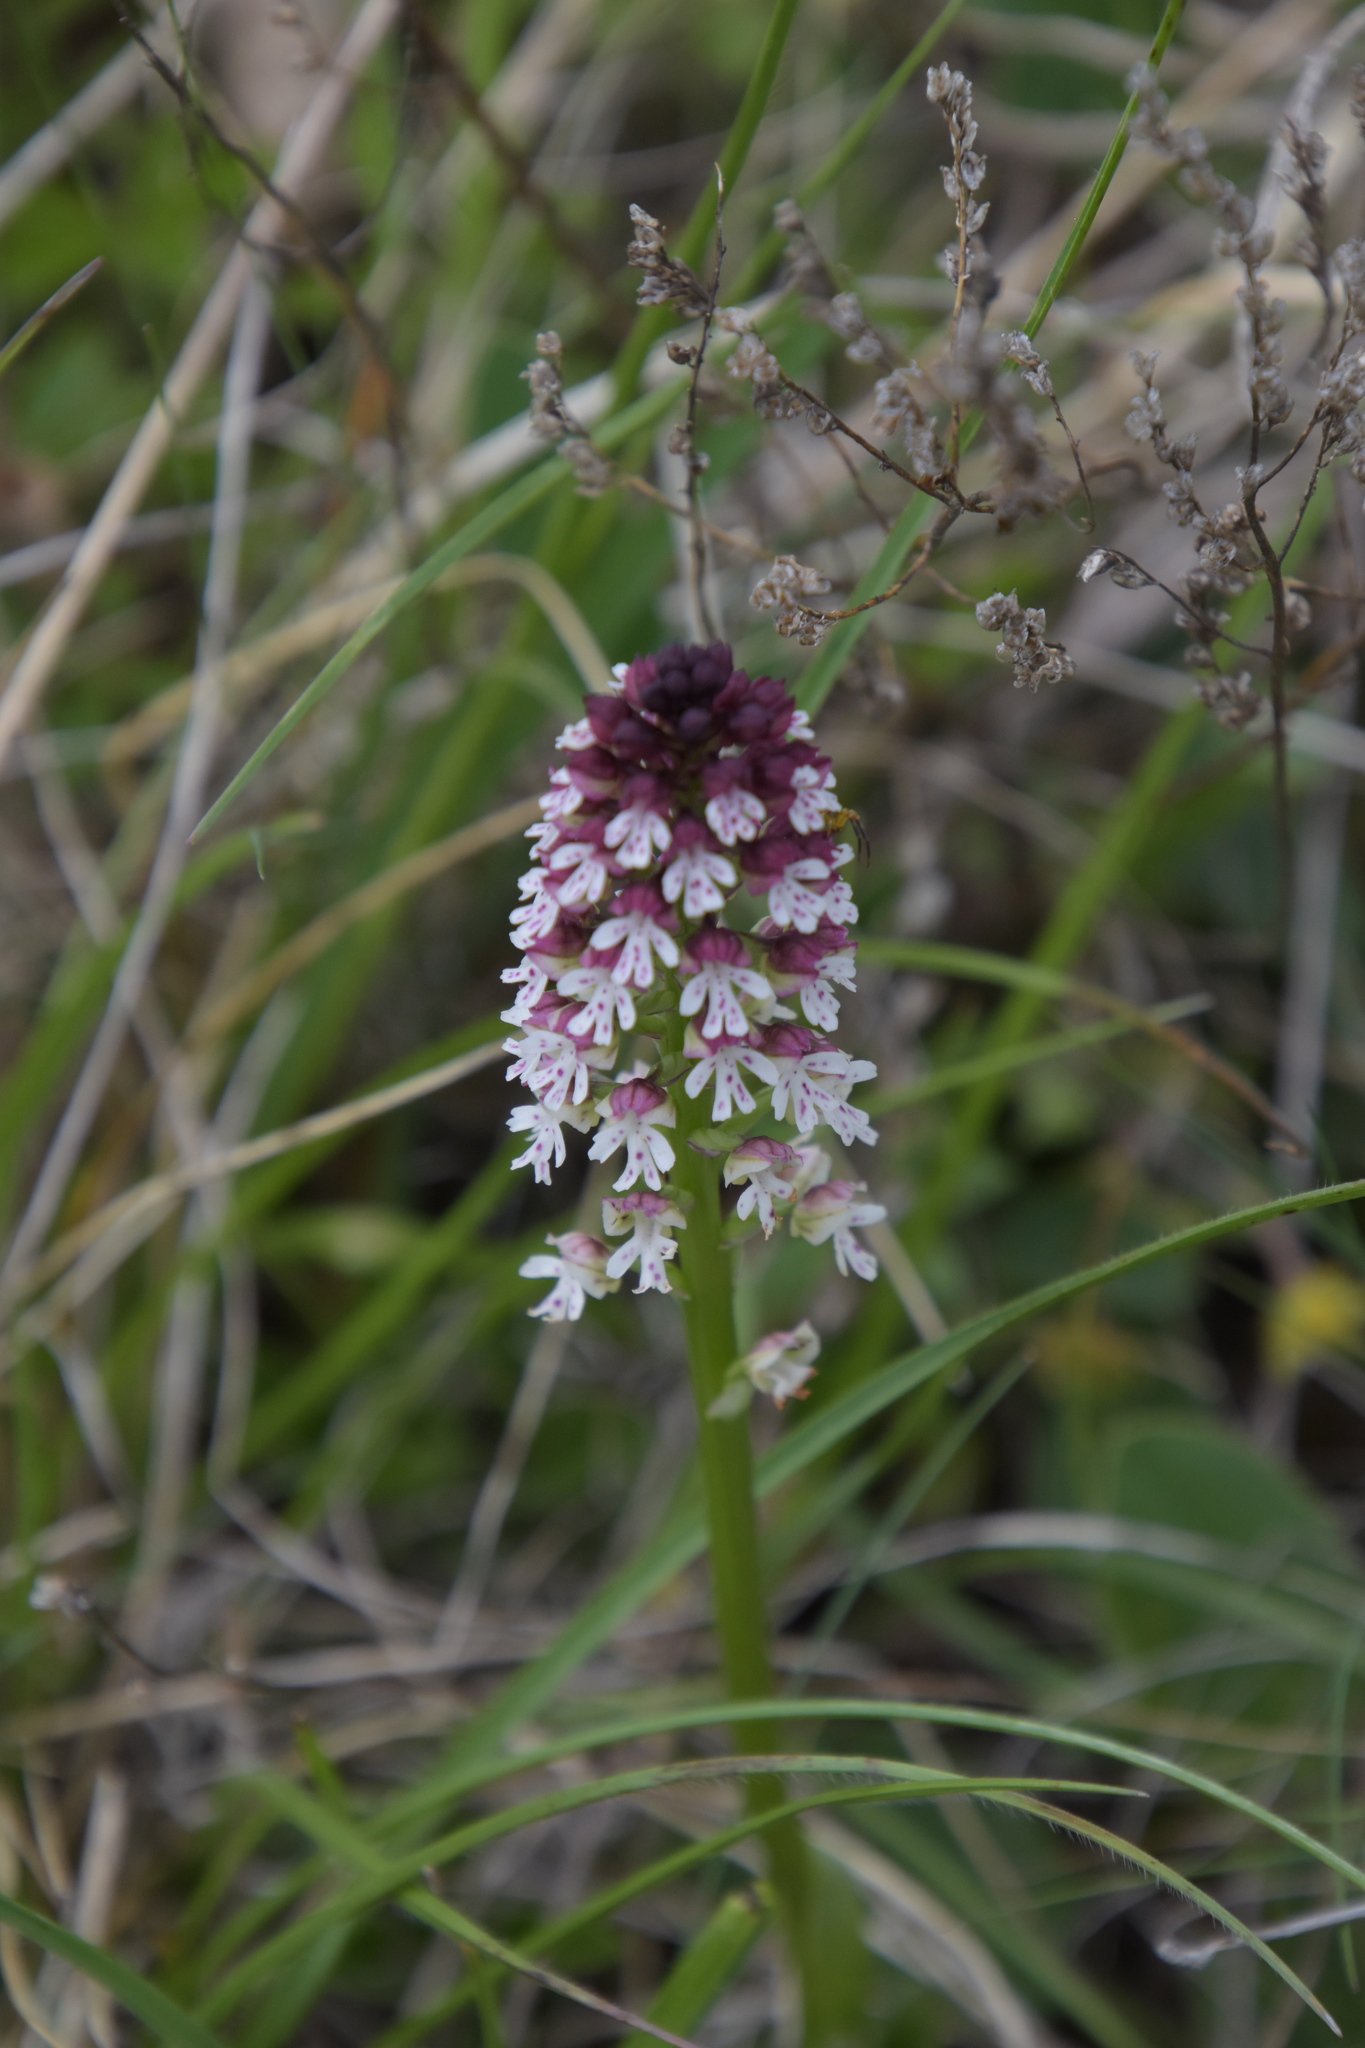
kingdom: Plantae
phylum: Tracheophyta
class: Liliopsida
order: Asparagales
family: Orchidaceae
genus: Neotinea
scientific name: Neotinea ustulata
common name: Burnt orchid
